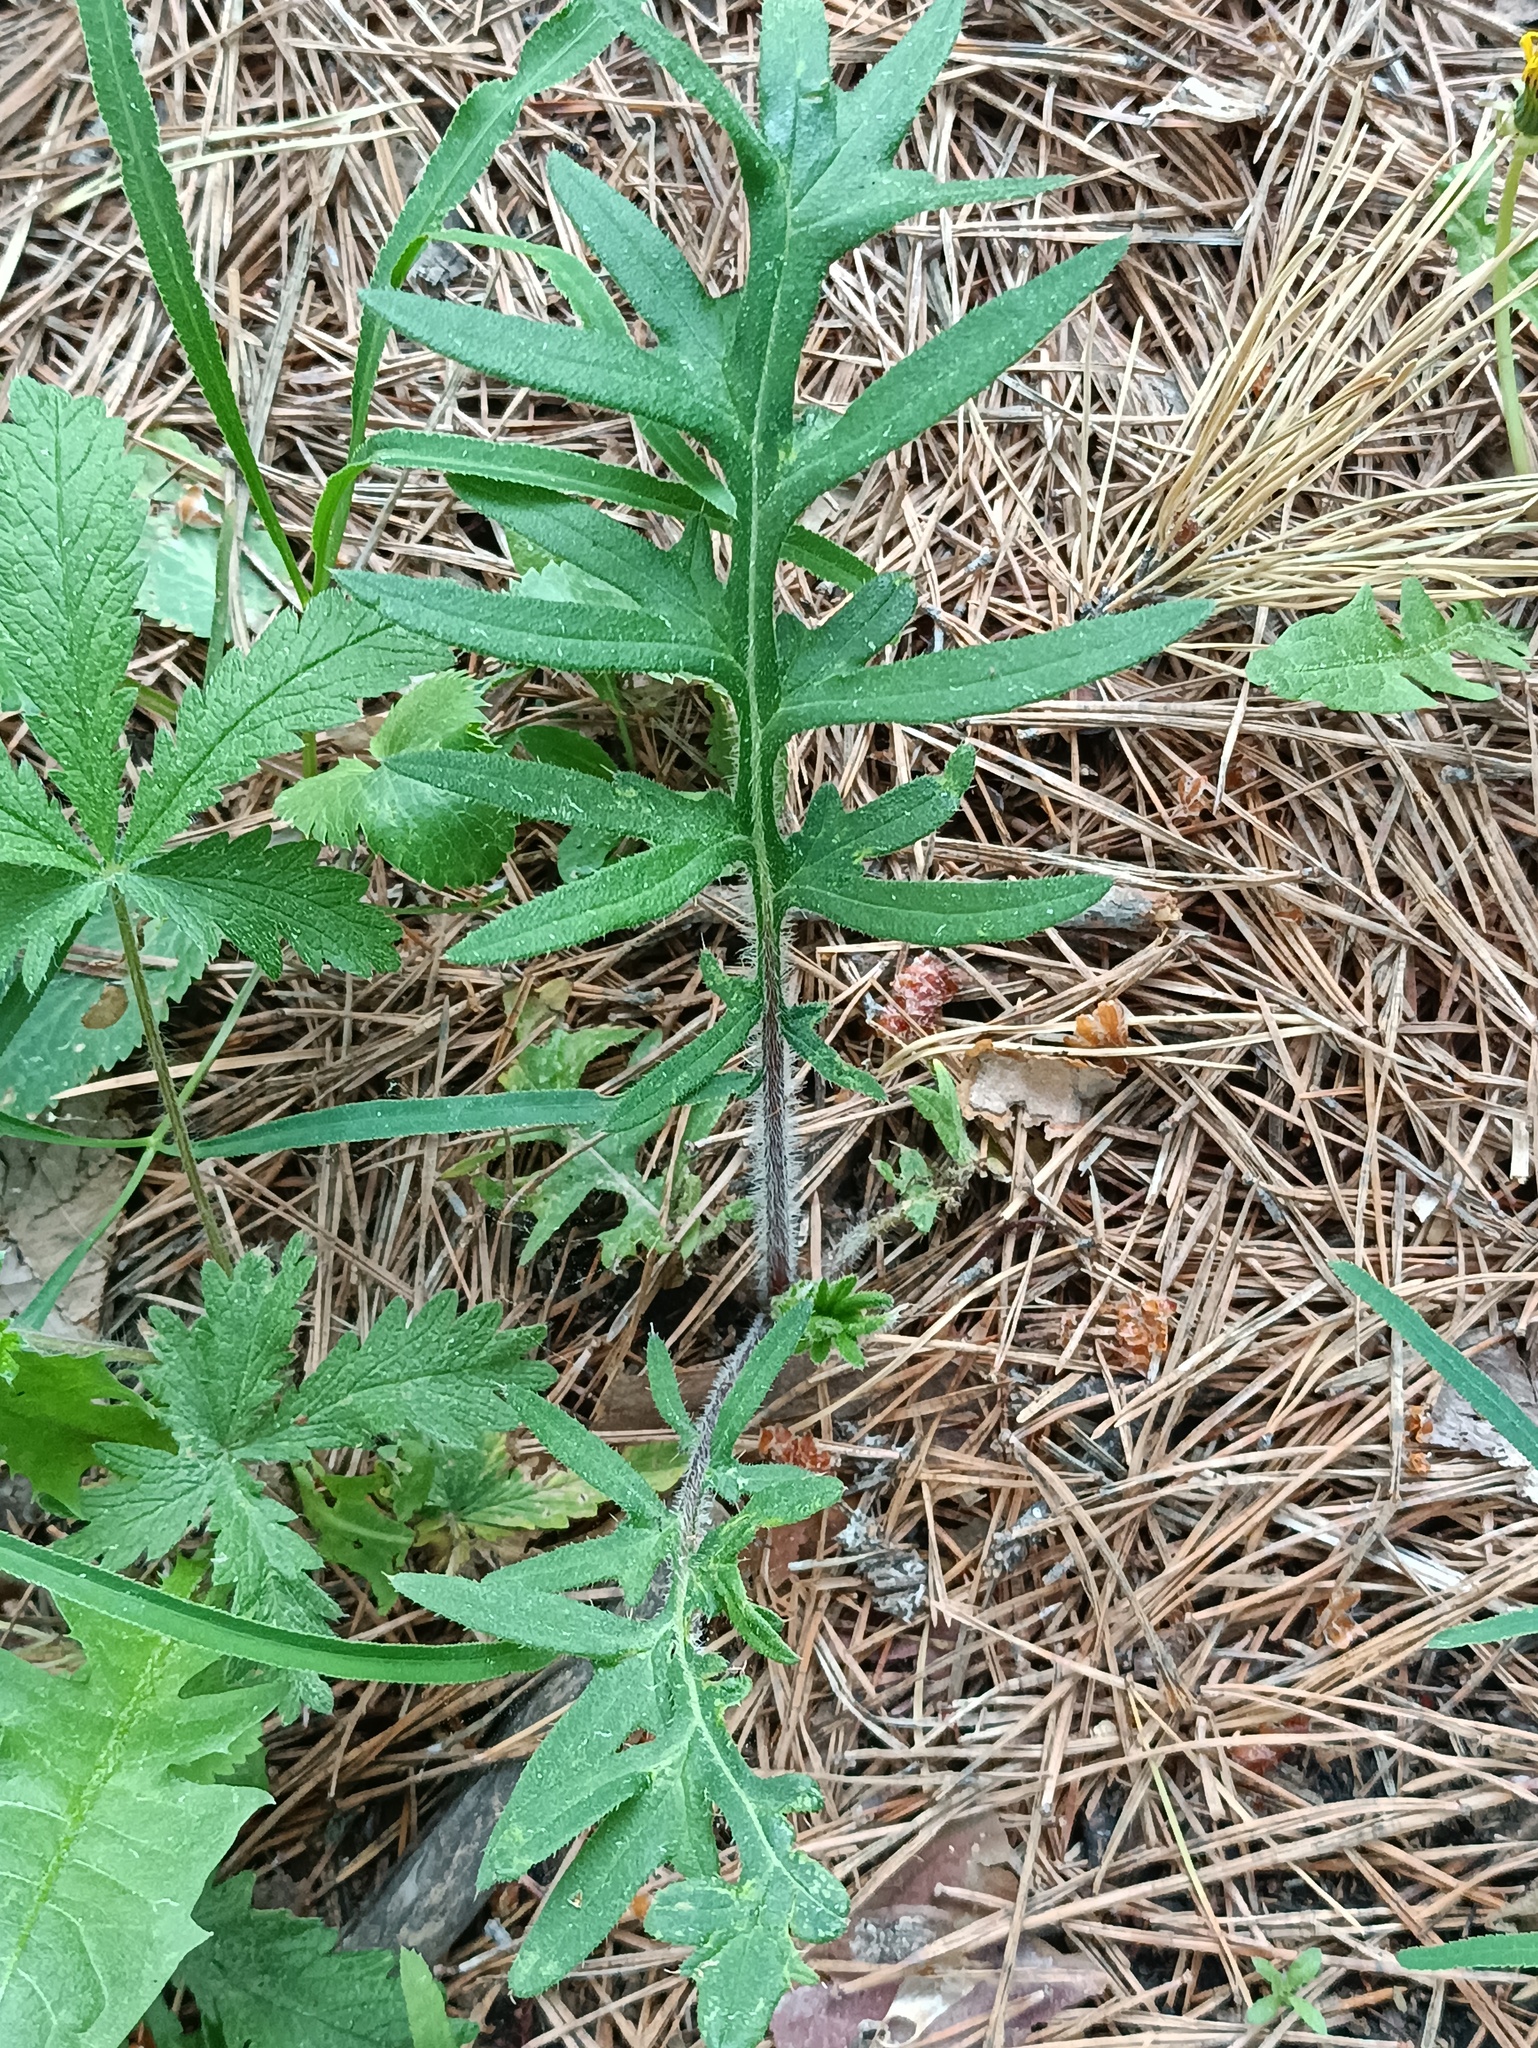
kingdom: Plantae
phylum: Tracheophyta
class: Magnoliopsida
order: Asterales
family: Asteraceae
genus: Lophiolepis
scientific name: Lophiolepis decussata
